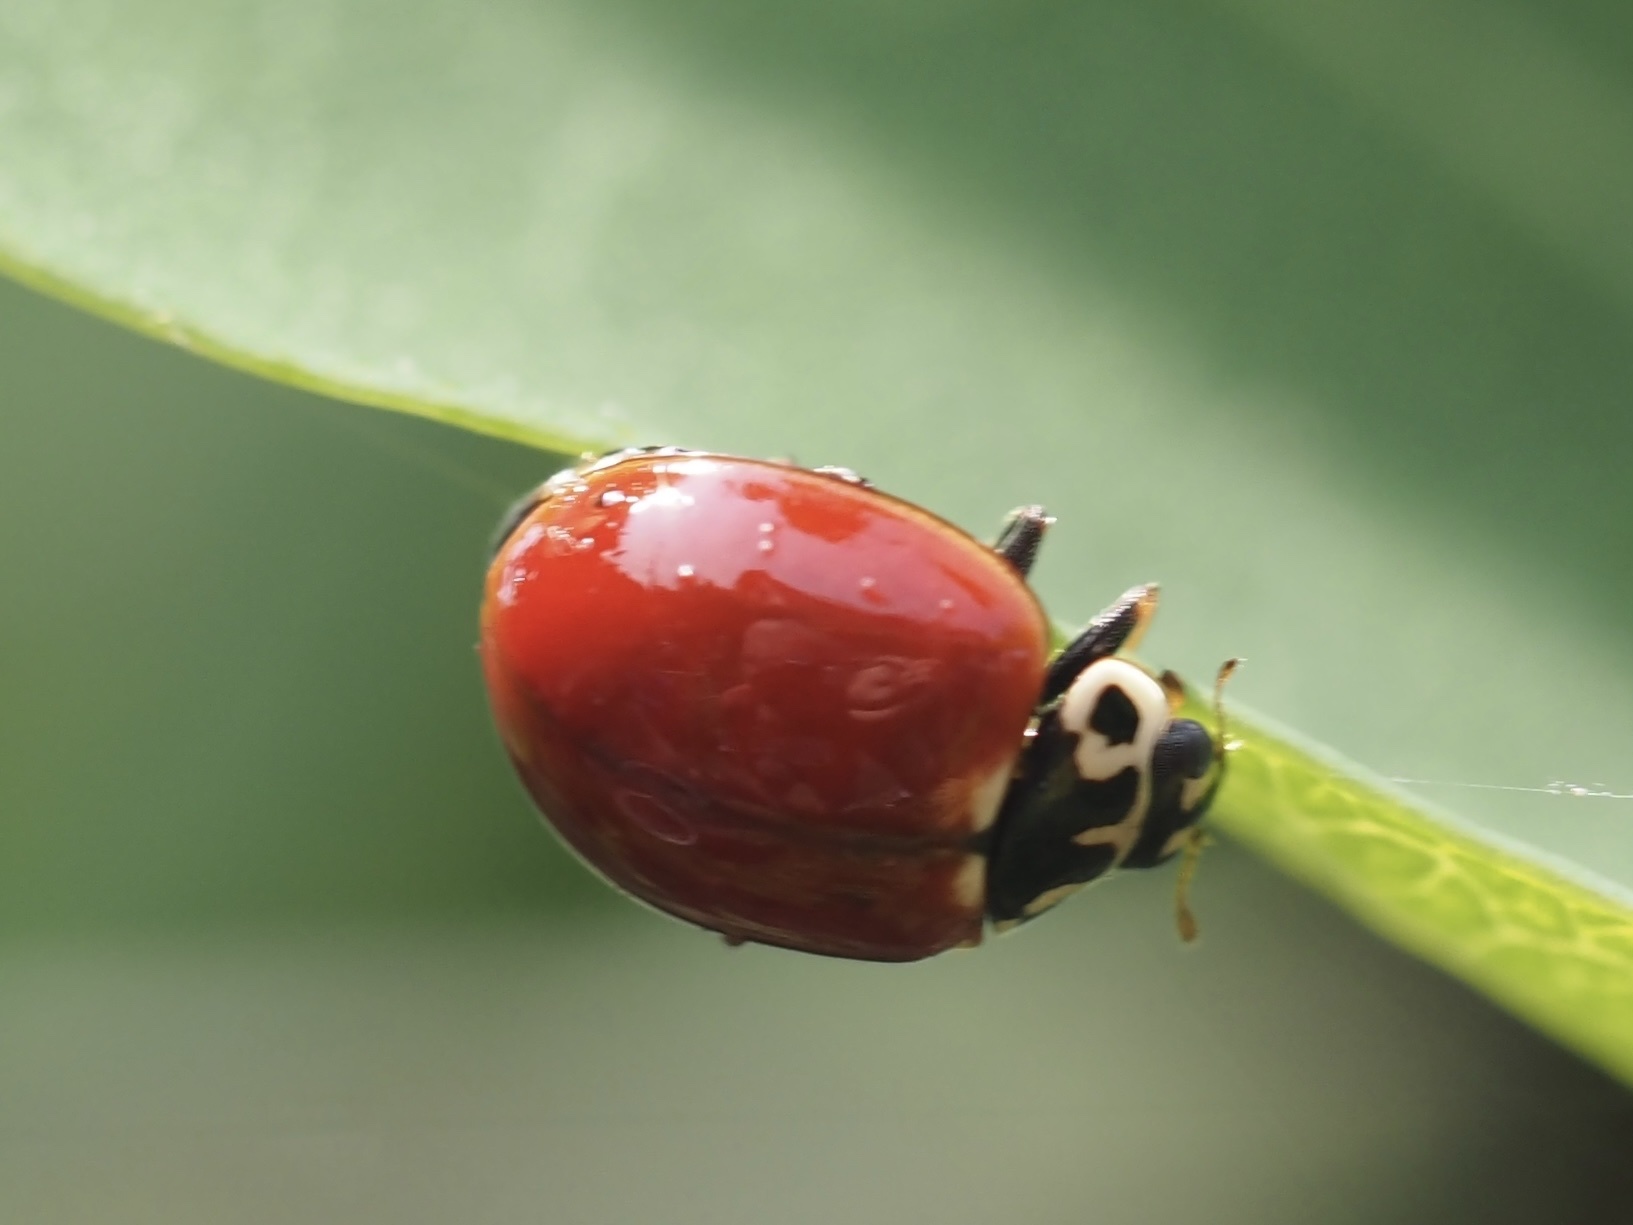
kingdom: Animalia
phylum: Arthropoda
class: Insecta
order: Coleoptera
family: Coccinellidae
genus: Cycloneda
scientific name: Cycloneda polita
